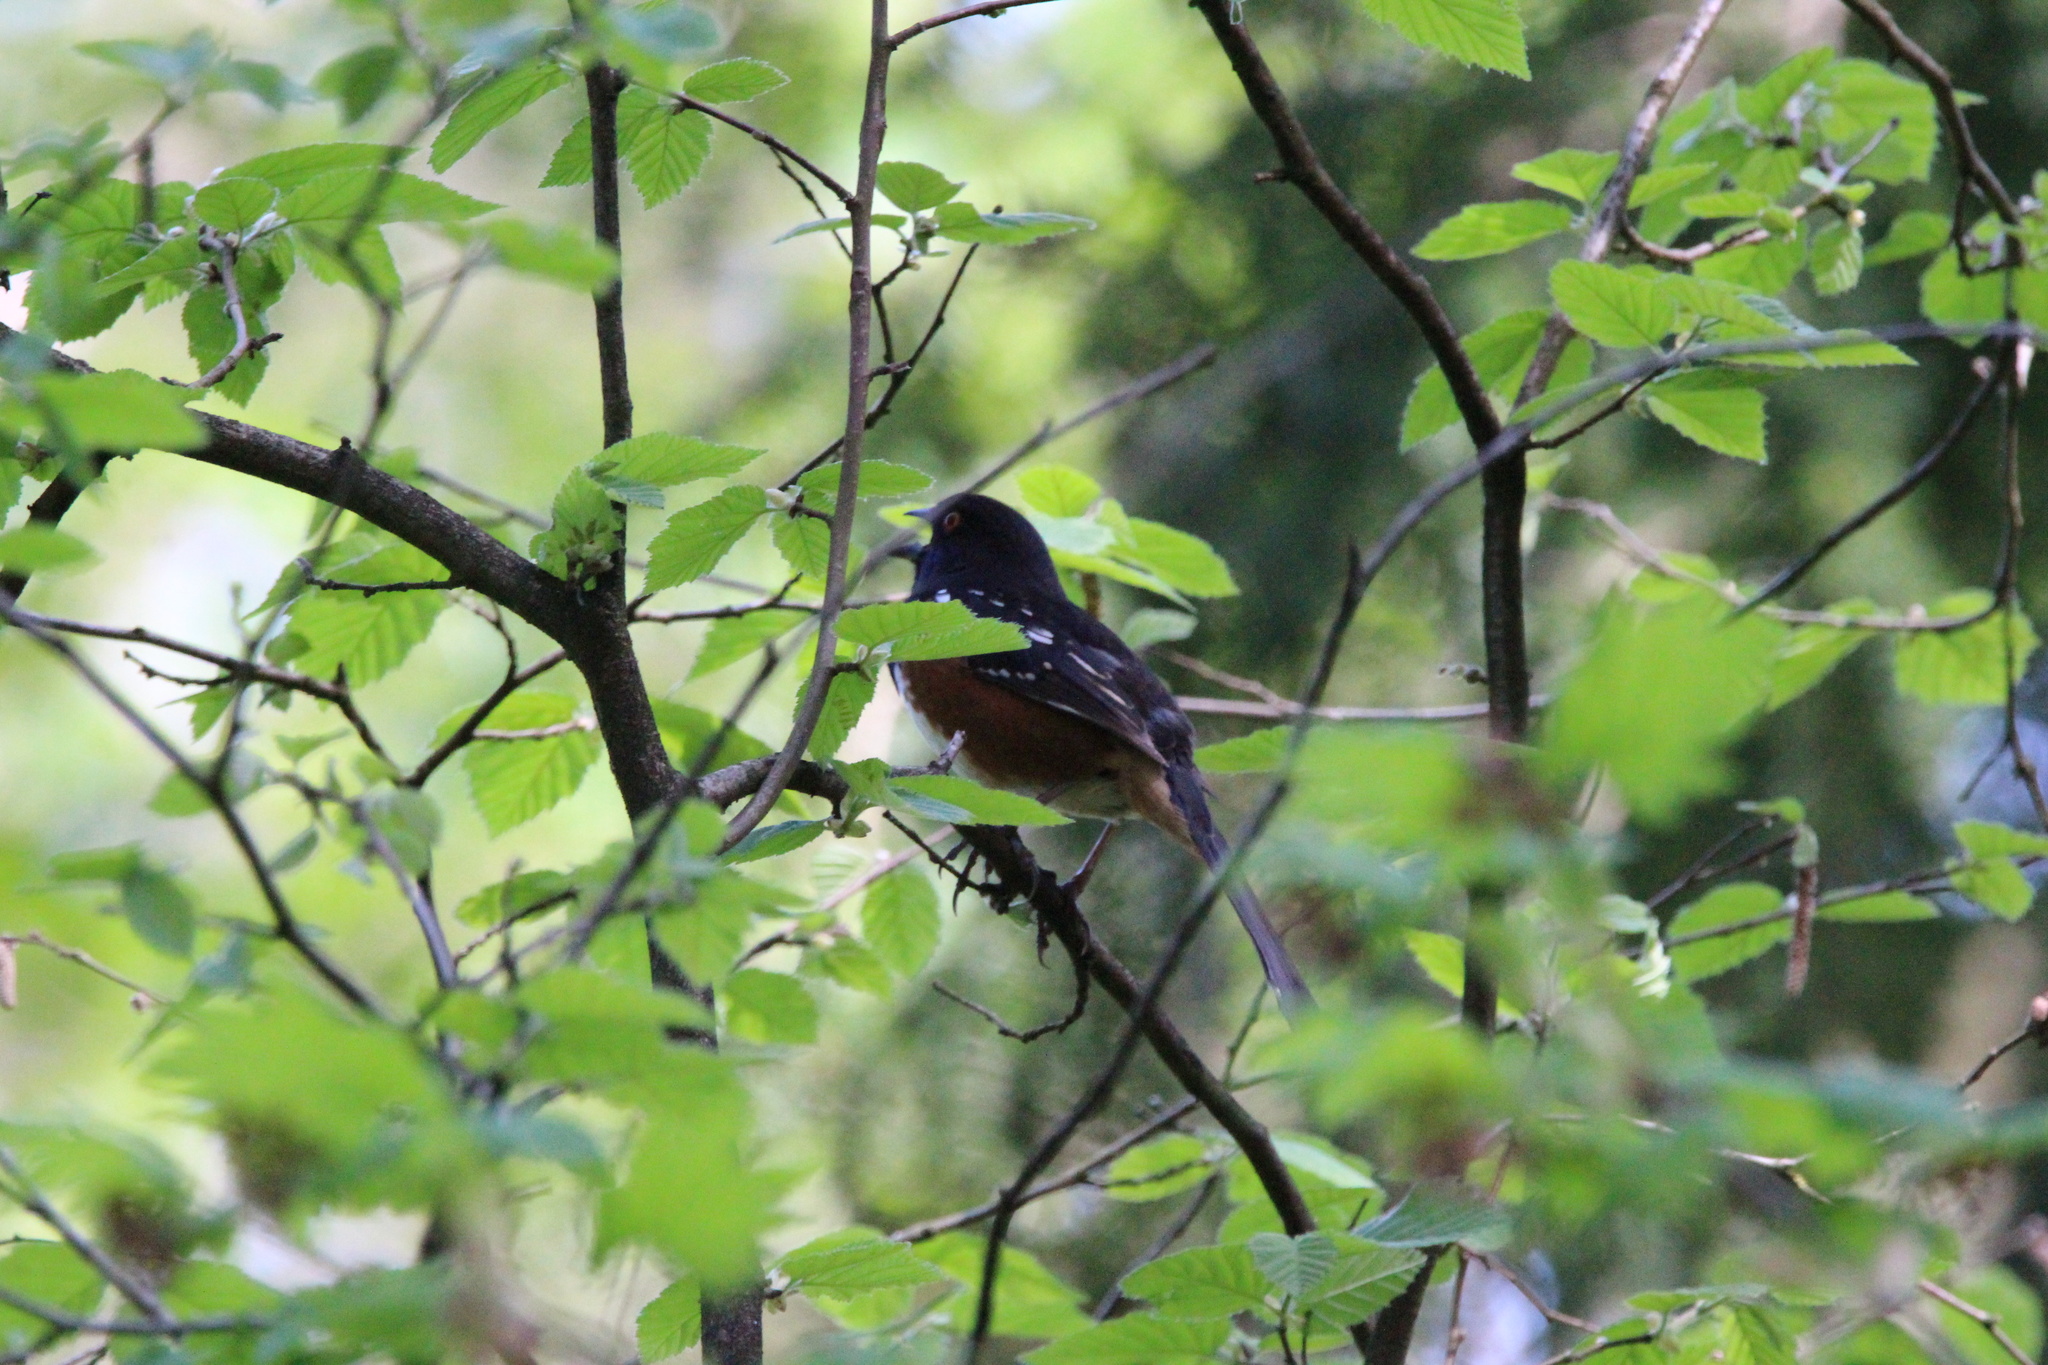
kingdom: Animalia
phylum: Chordata
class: Aves
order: Passeriformes
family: Passerellidae
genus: Pipilo
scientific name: Pipilo maculatus
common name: Spotted towhee
